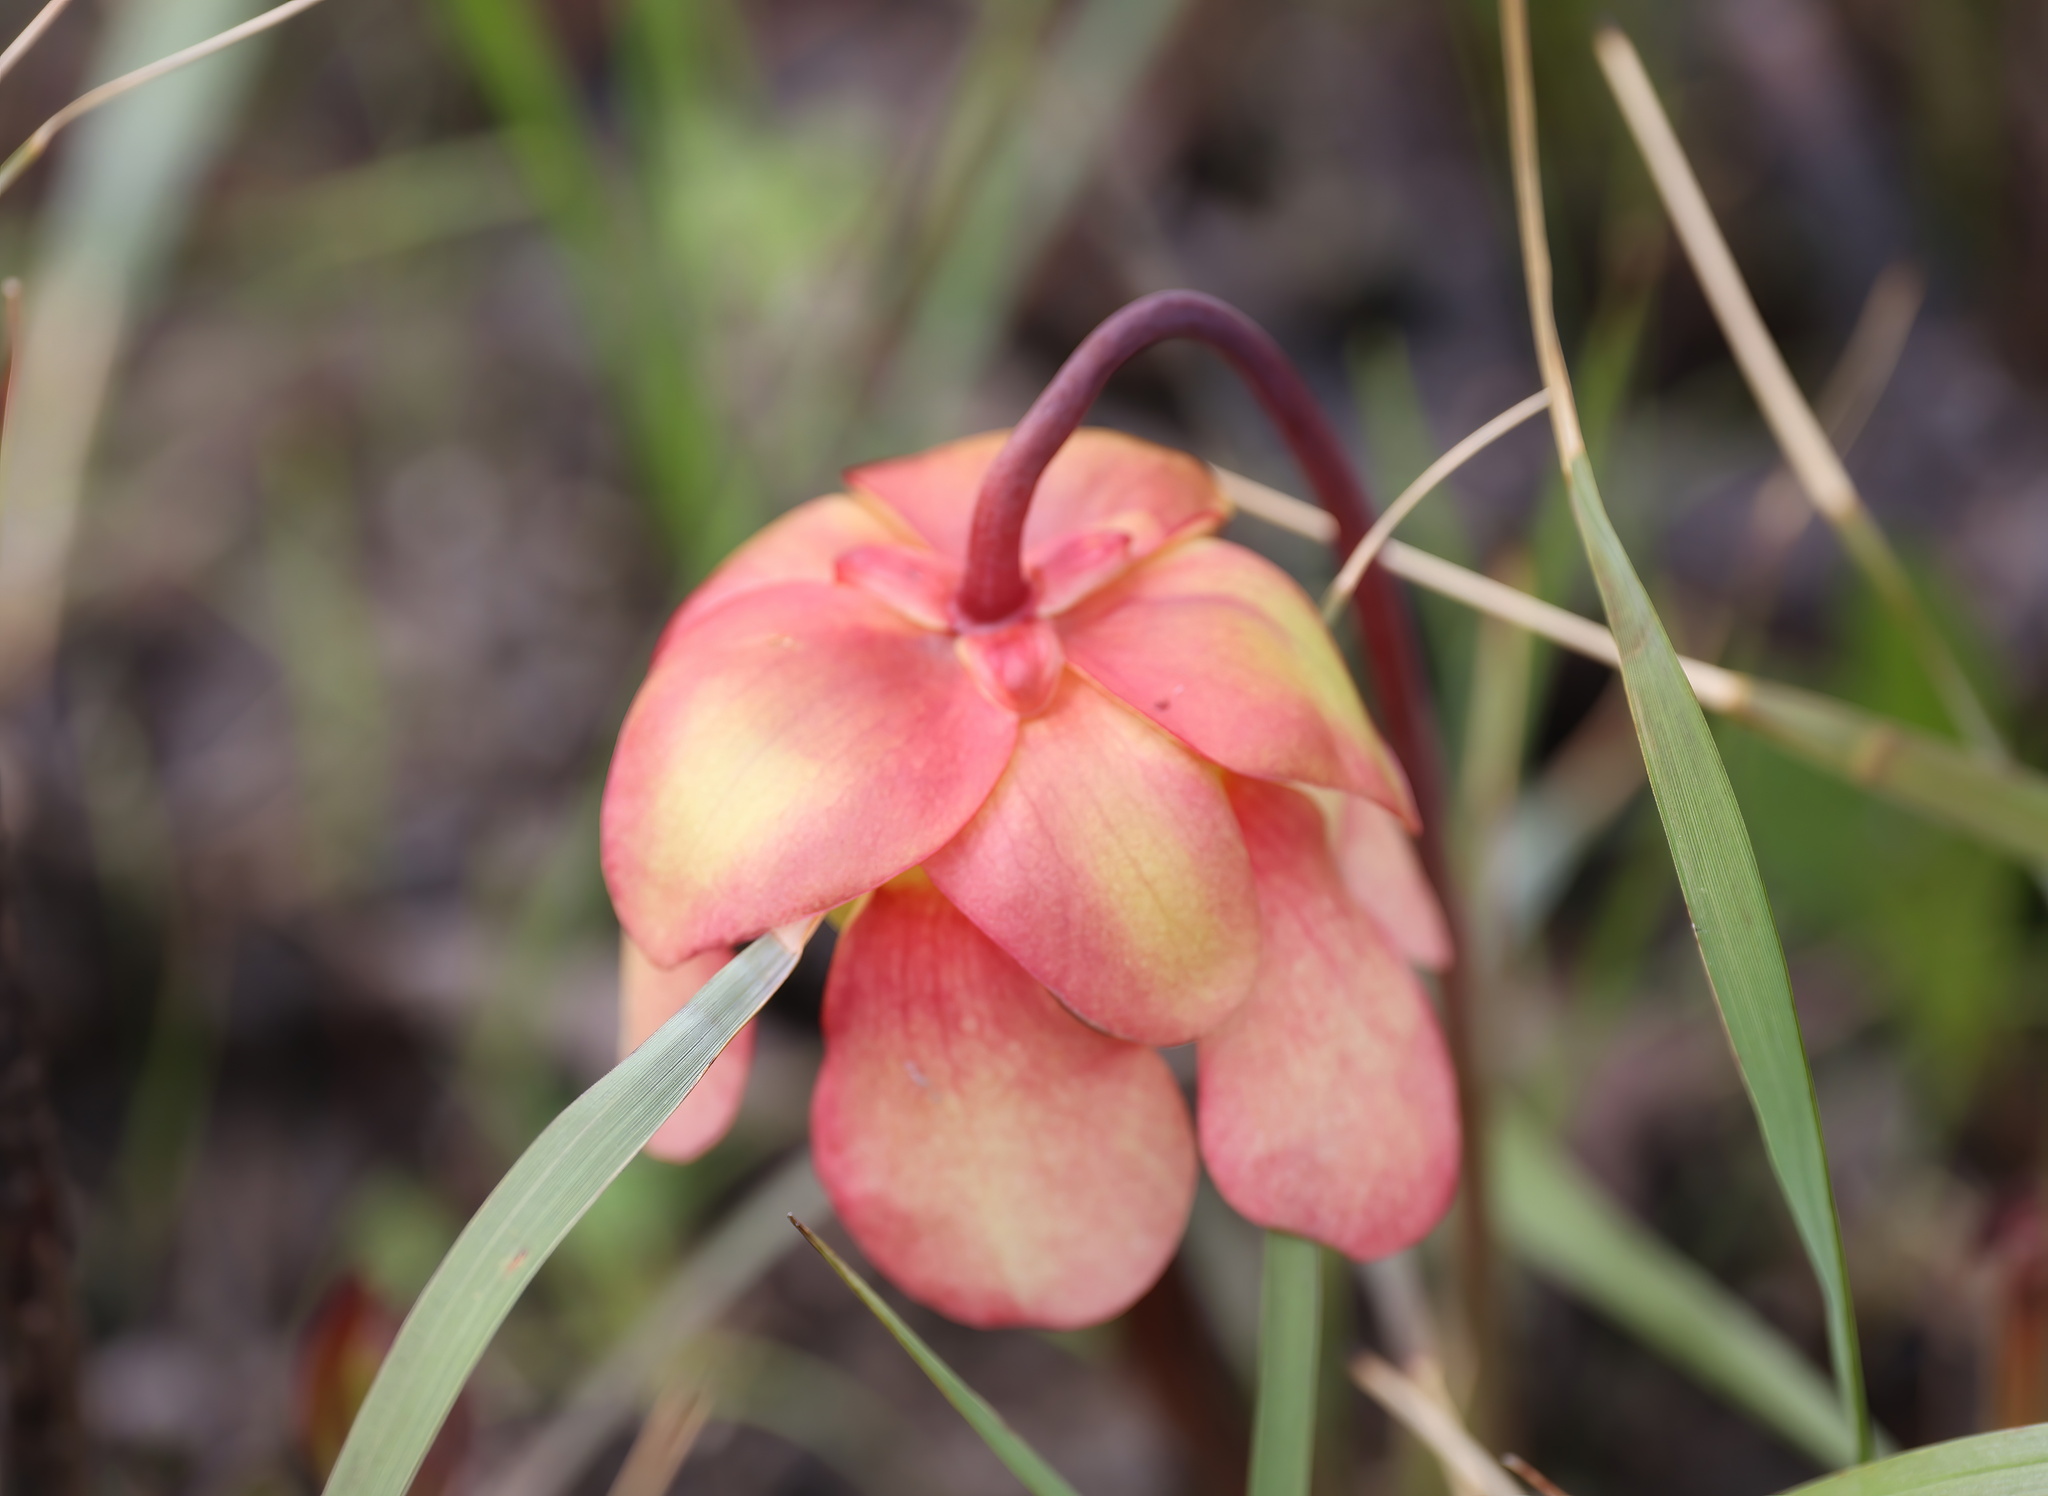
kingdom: Plantae
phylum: Tracheophyta
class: Magnoliopsida
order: Ericales
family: Sarraceniaceae
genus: Sarracenia
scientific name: Sarracenia areolata
